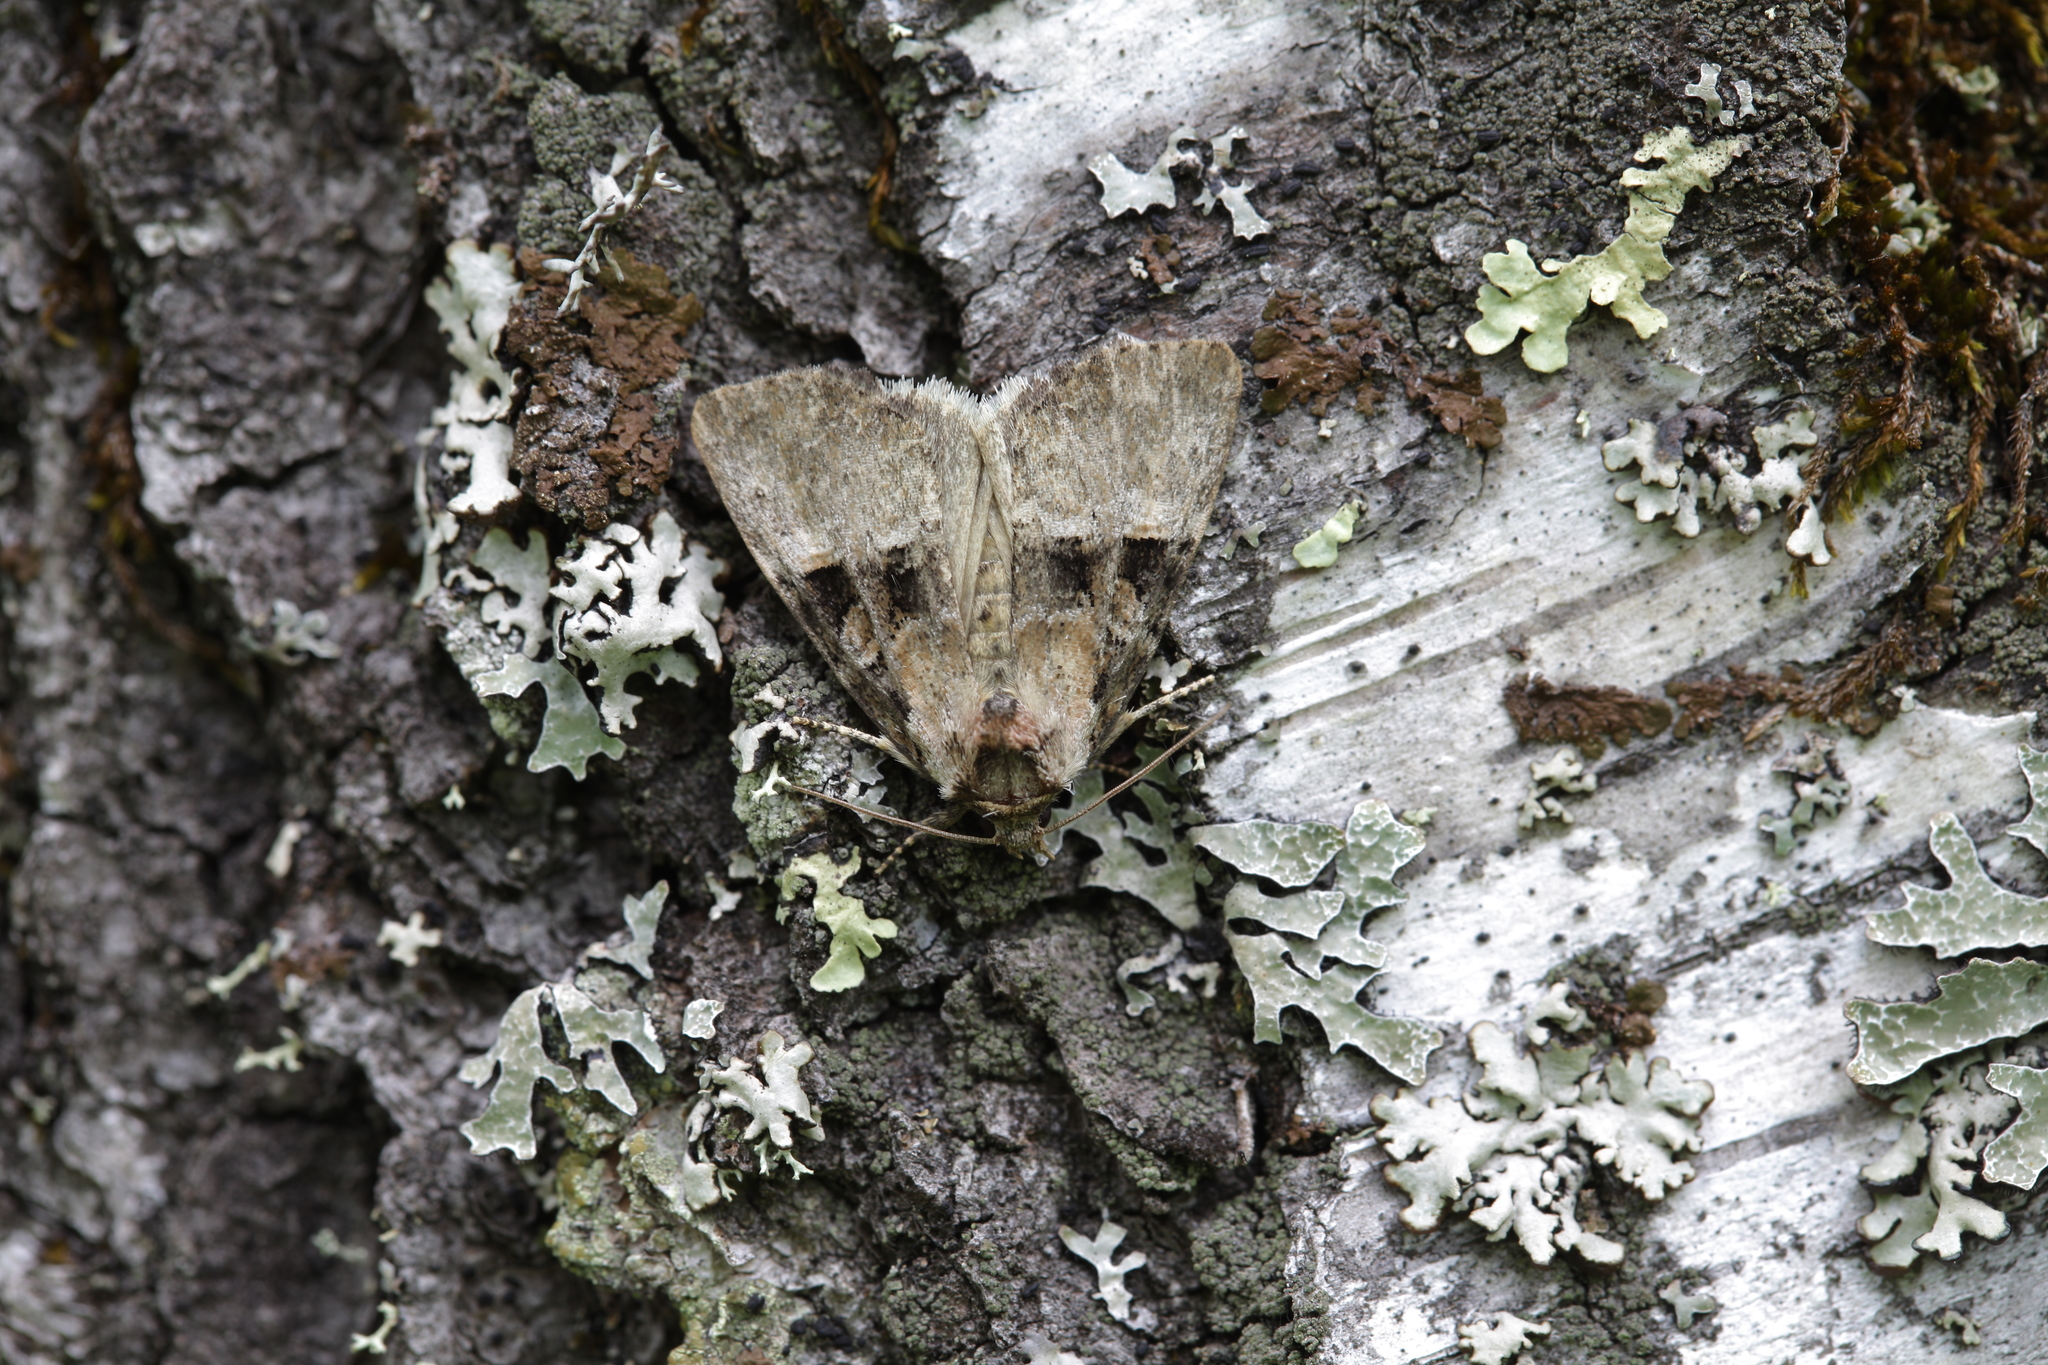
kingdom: Animalia
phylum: Arthropoda
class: Insecta
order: Lepidoptera
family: Noctuidae
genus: Eucarta
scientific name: Eucarta arcta
